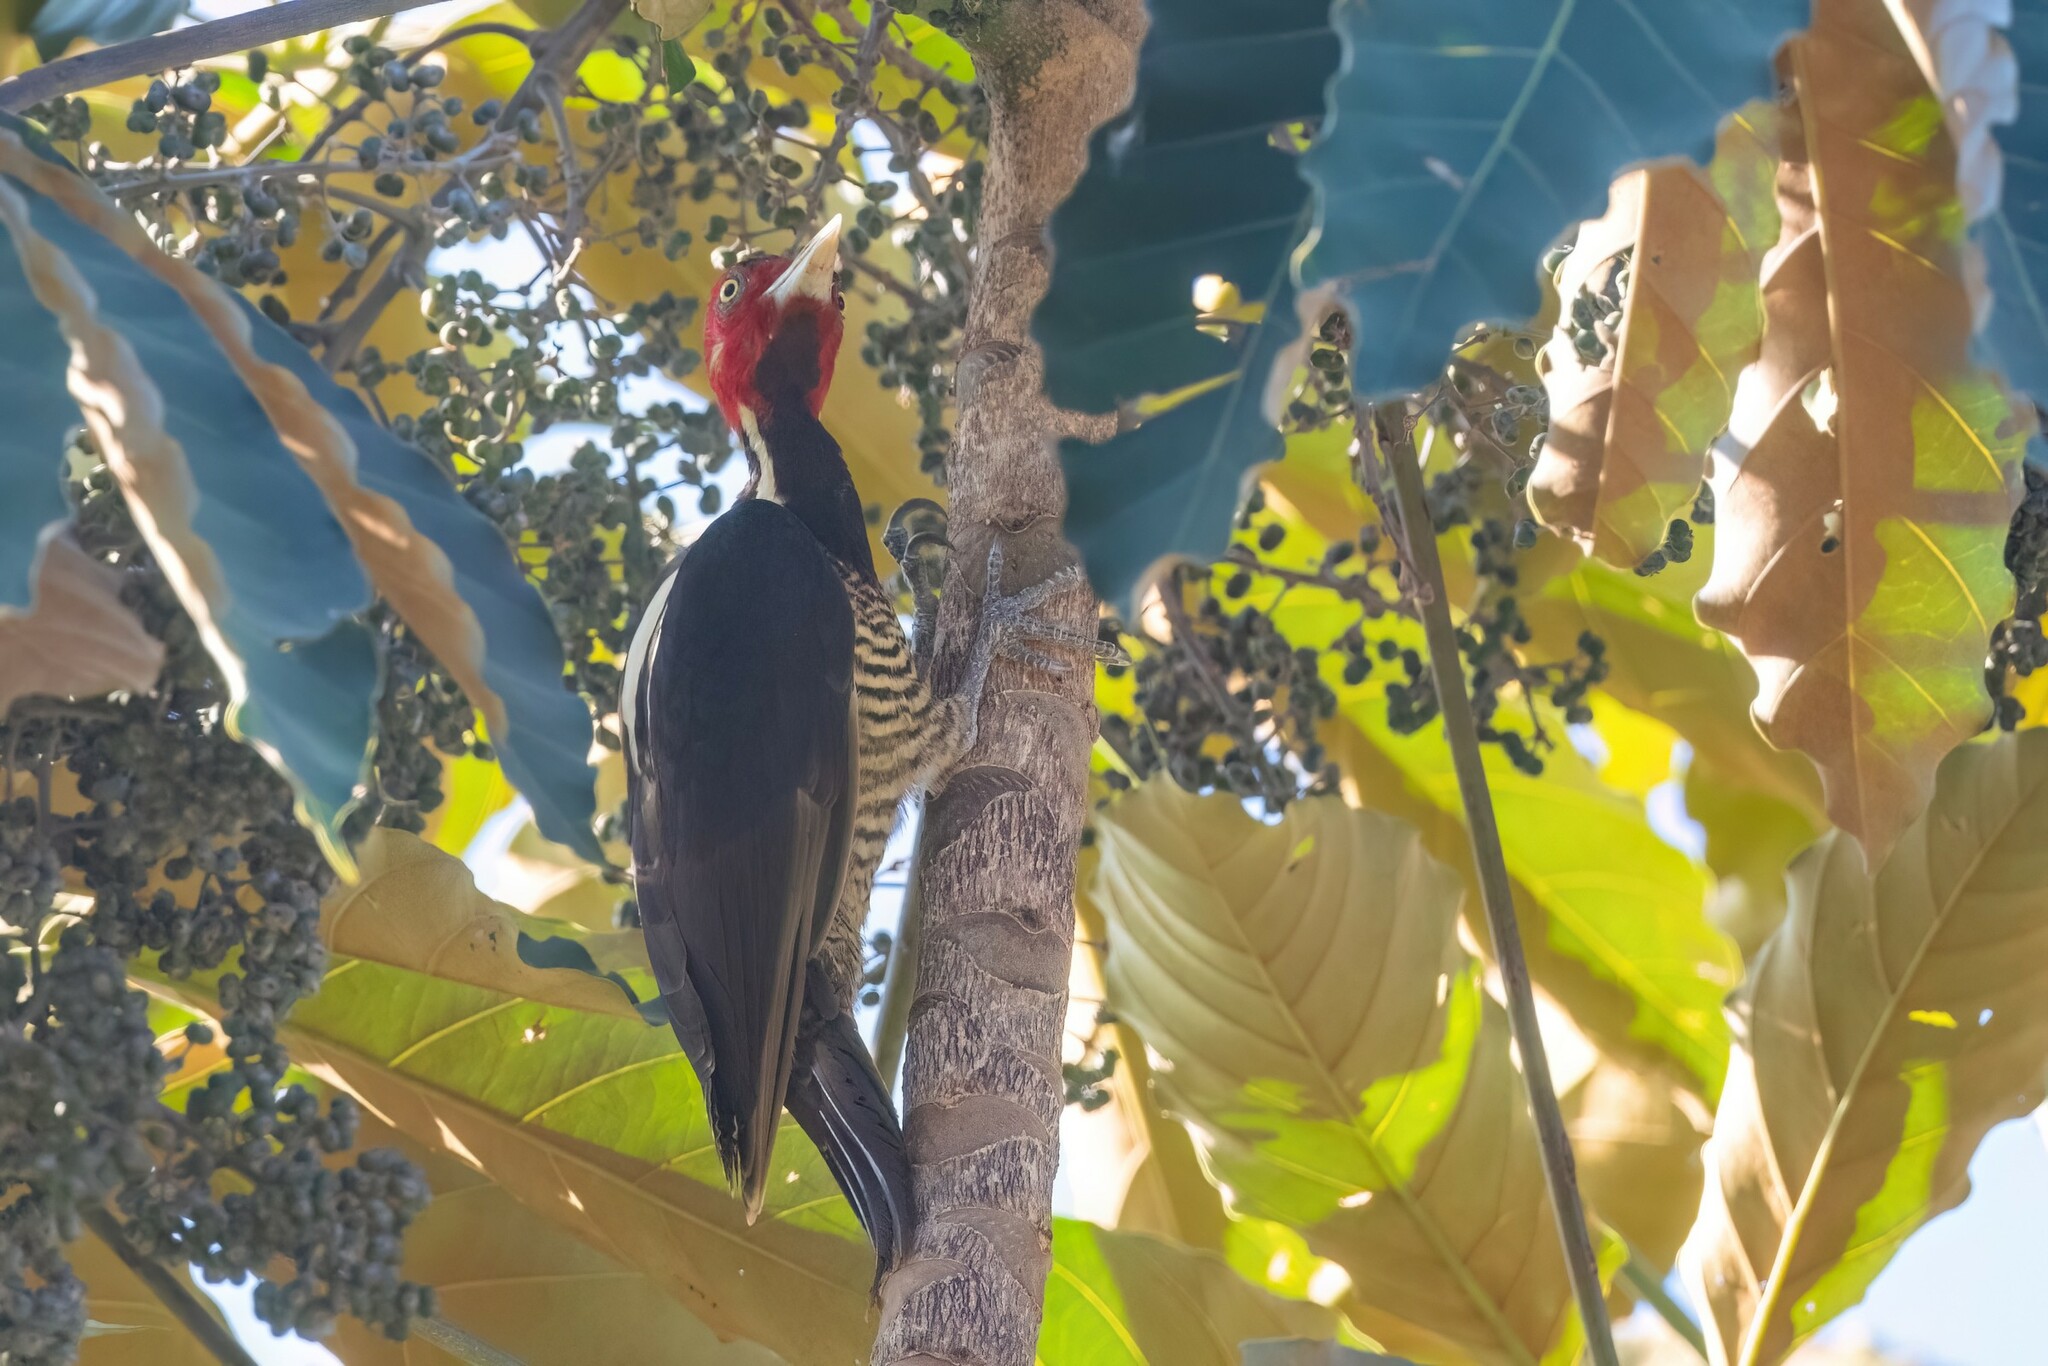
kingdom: Animalia
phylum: Chordata
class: Aves
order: Piciformes
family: Picidae
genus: Campephilus
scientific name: Campephilus guatemalensis
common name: Pale-billed woodpecker
